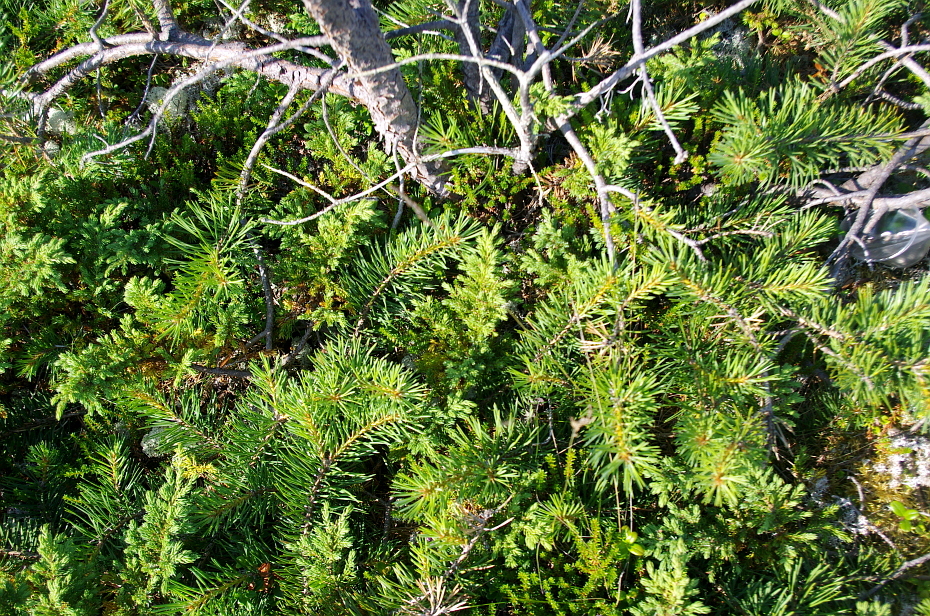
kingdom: Plantae
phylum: Tracheophyta
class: Pinopsida
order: Pinales
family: Cupressaceae
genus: Juniperus
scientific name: Juniperus communis
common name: Common juniper
